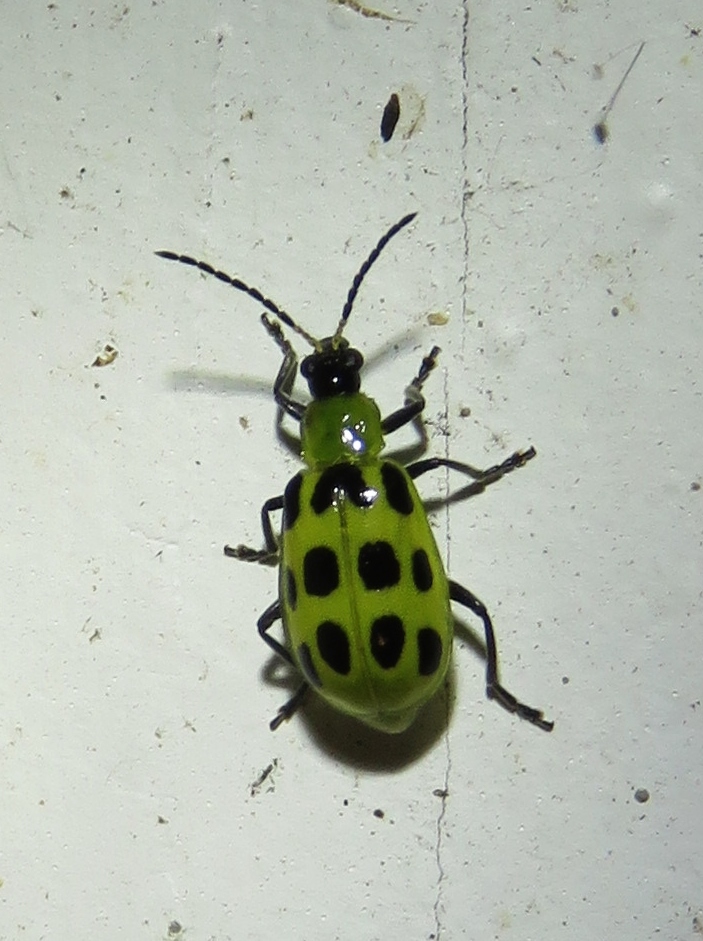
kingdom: Animalia
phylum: Arthropoda
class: Insecta
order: Coleoptera
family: Chrysomelidae
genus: Diabrotica
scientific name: Diabrotica undecimpunctata
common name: Spotted cucumber beetle
